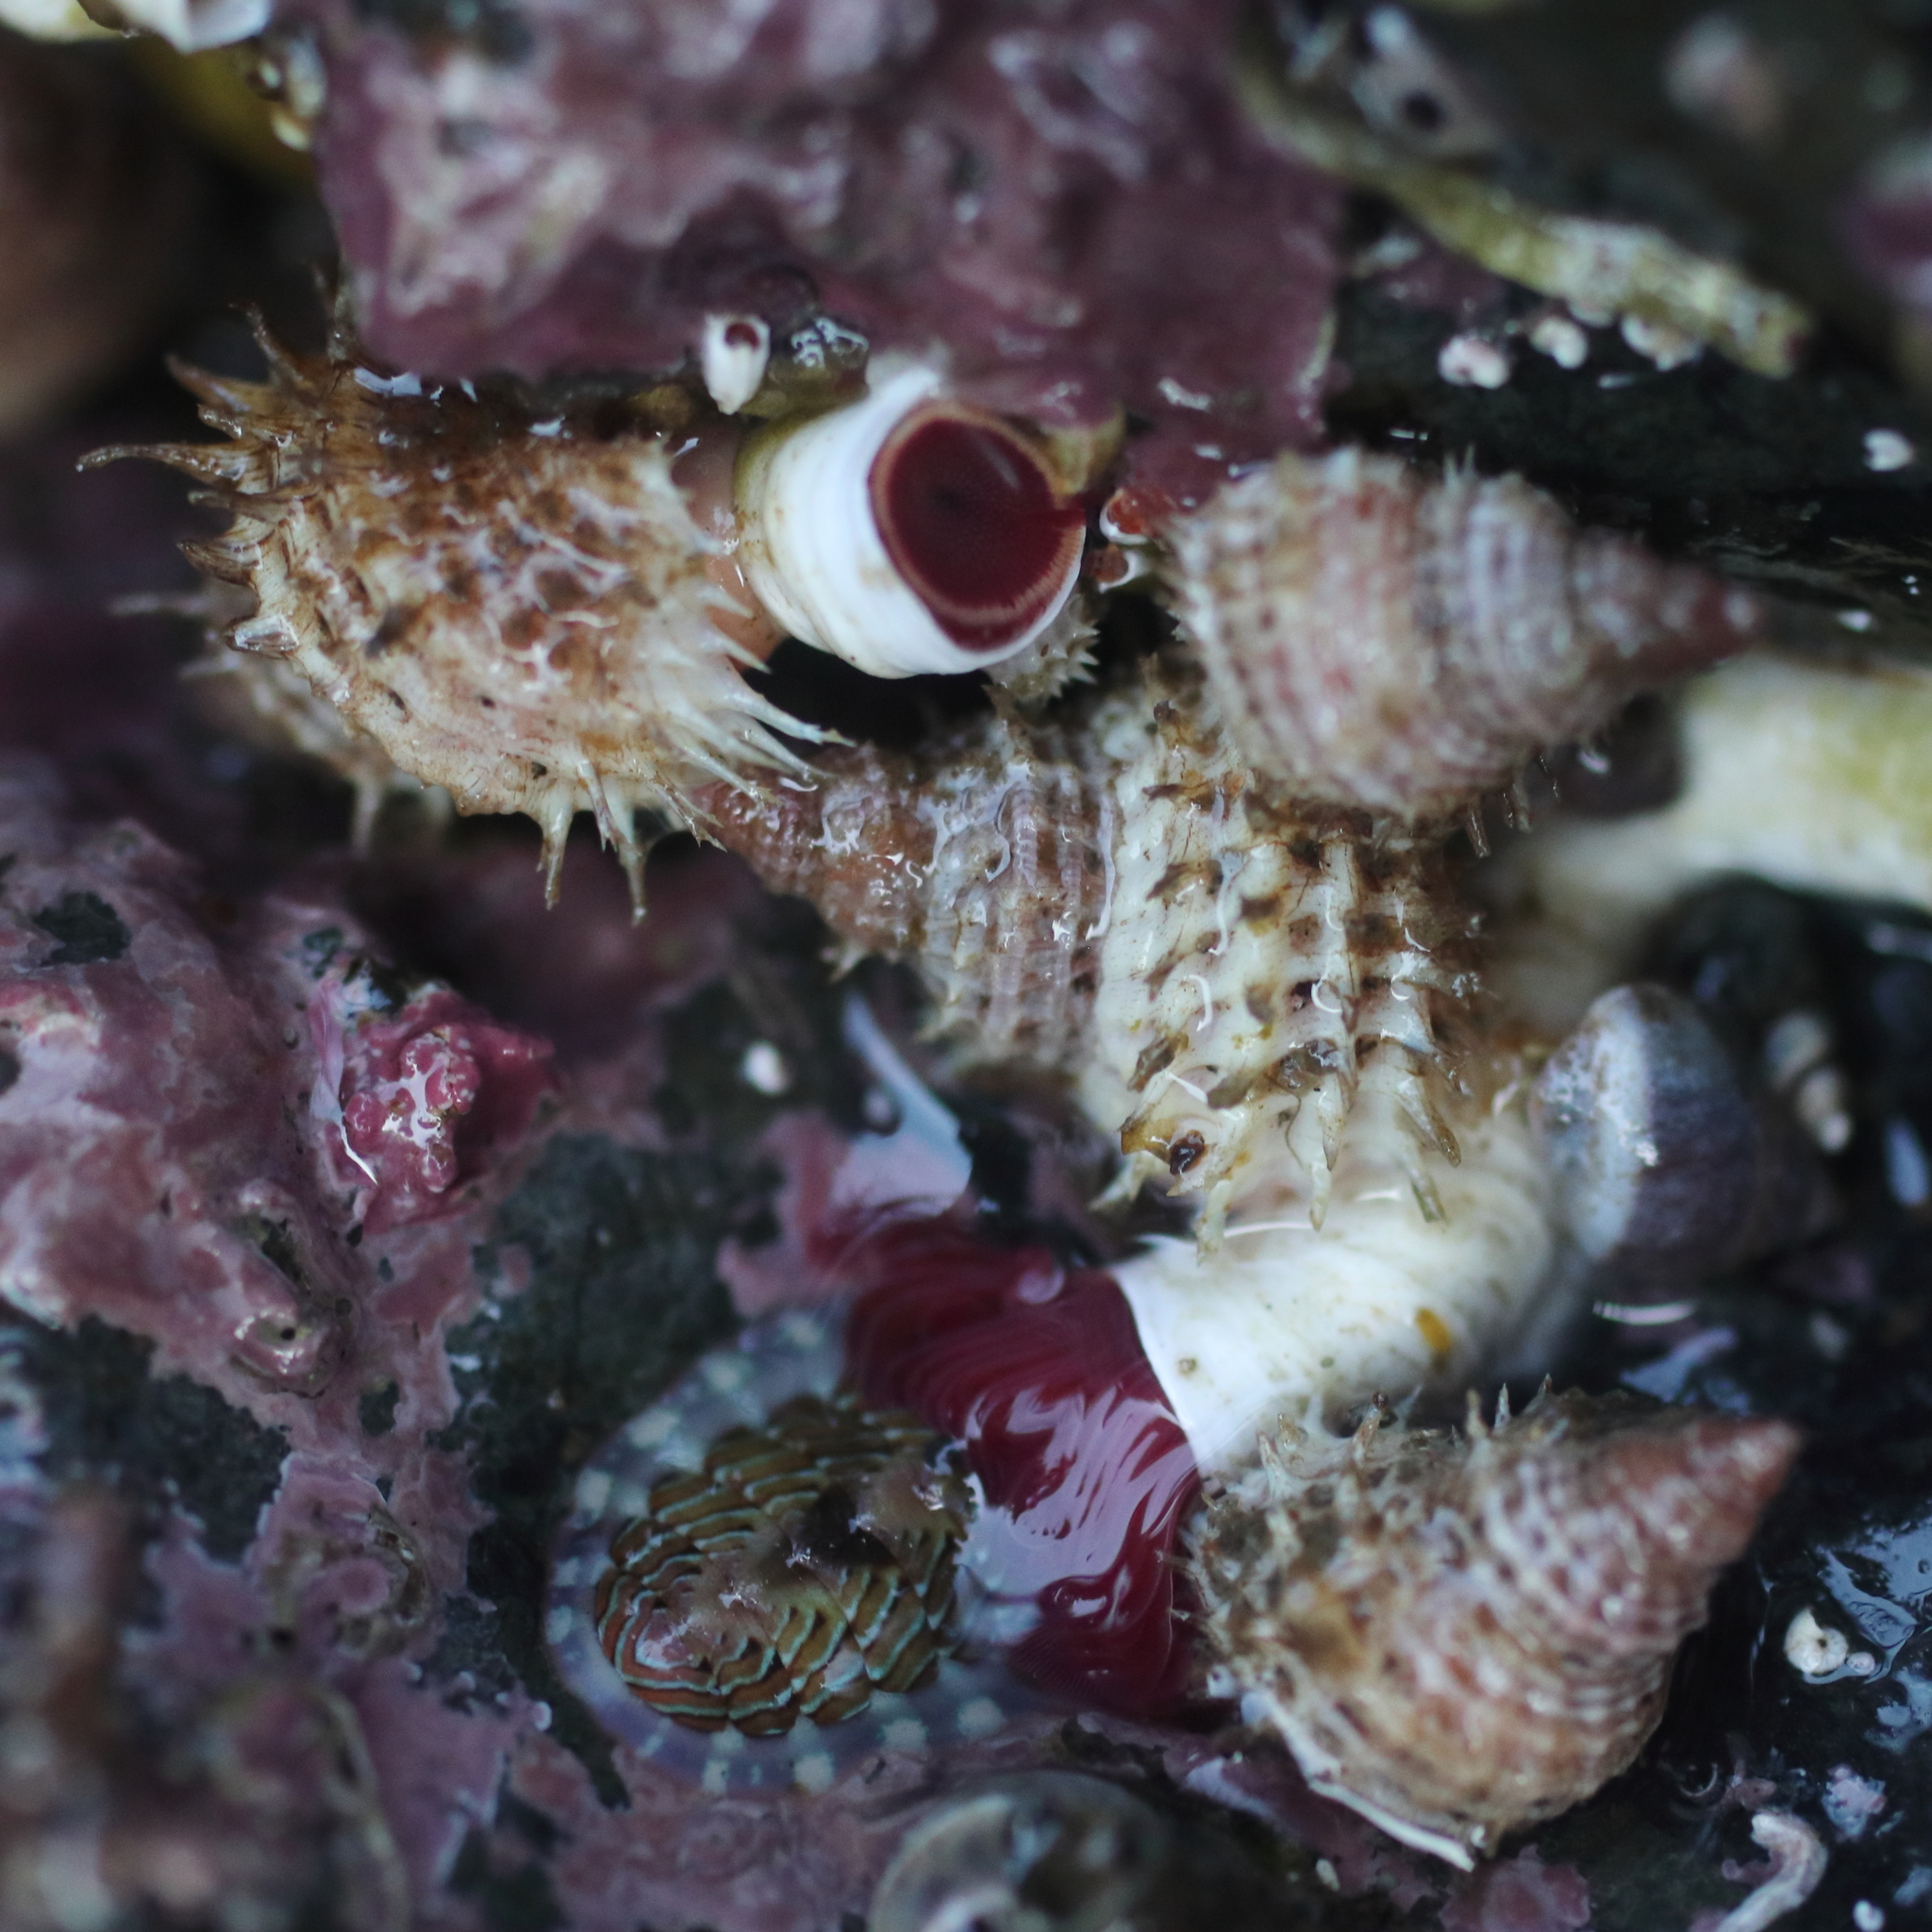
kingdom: Animalia
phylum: Mollusca
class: Gastropoda
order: Littorinimorpha
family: Capulidae
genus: Trichotropis
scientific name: Trichotropis cancellata
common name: Cancellate hairysnail
